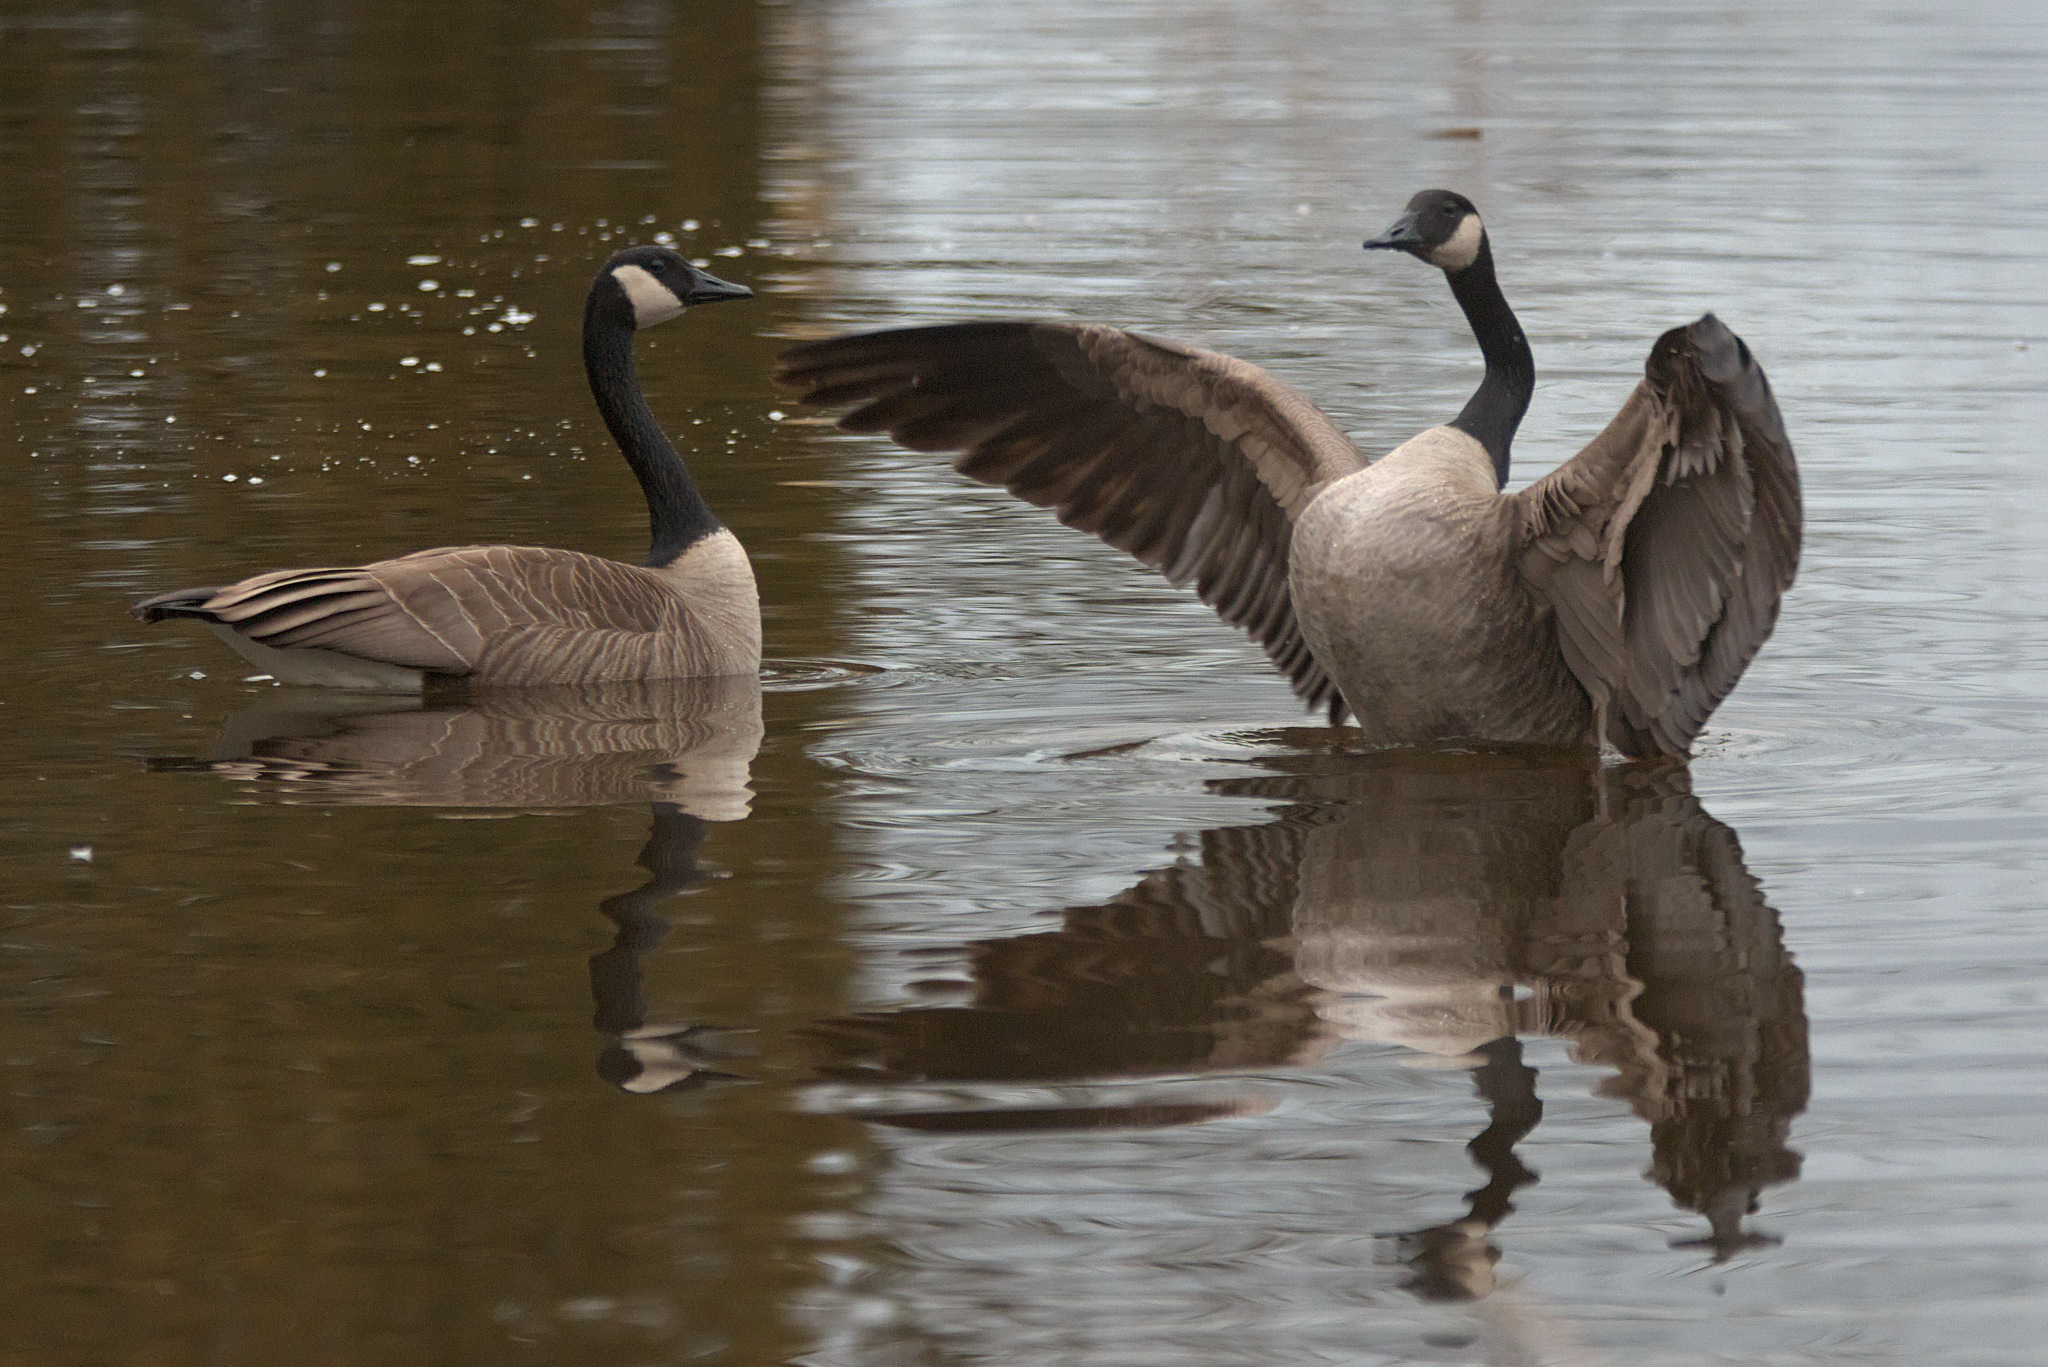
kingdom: Animalia
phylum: Chordata
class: Aves
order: Anseriformes
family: Anatidae
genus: Branta
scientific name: Branta canadensis
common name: Canada goose
